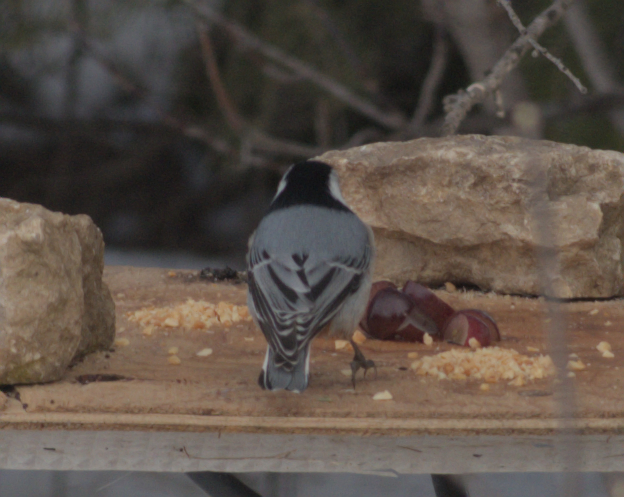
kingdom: Animalia
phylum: Chordata
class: Aves
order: Passeriformes
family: Sittidae
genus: Sitta
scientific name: Sitta carolinensis
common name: White-breasted nuthatch
